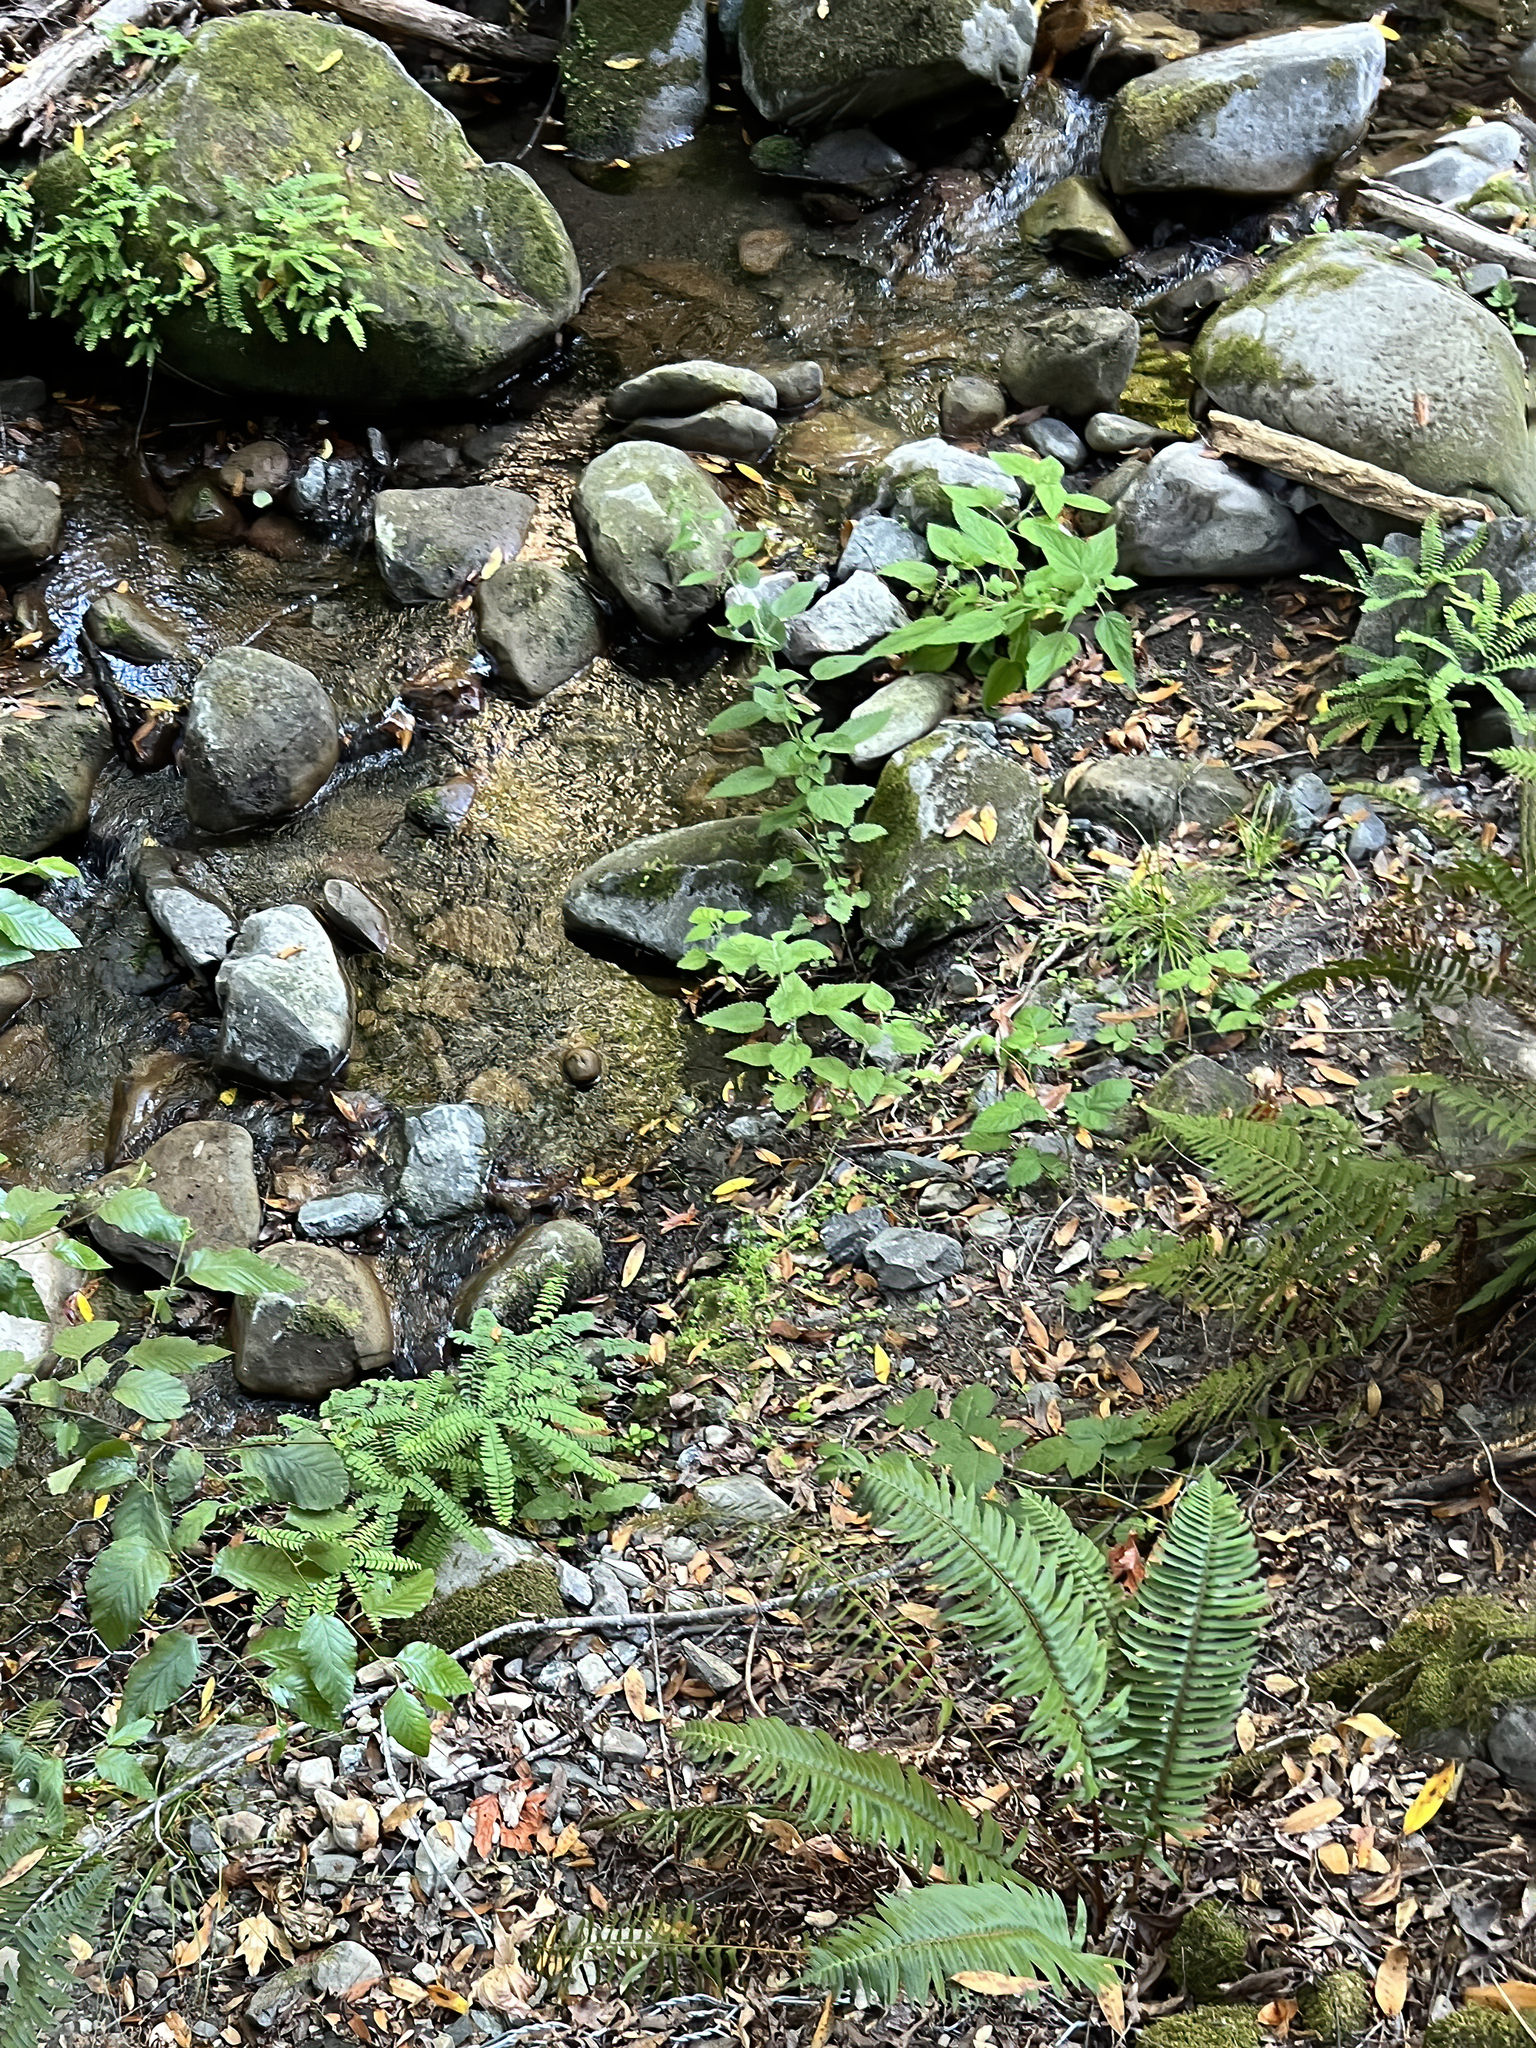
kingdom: Plantae
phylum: Tracheophyta
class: Polypodiopsida
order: Polypodiales
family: Pteridaceae
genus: Adiantum
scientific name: Adiantum aleuticum
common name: Aleutian maidenhair fern
